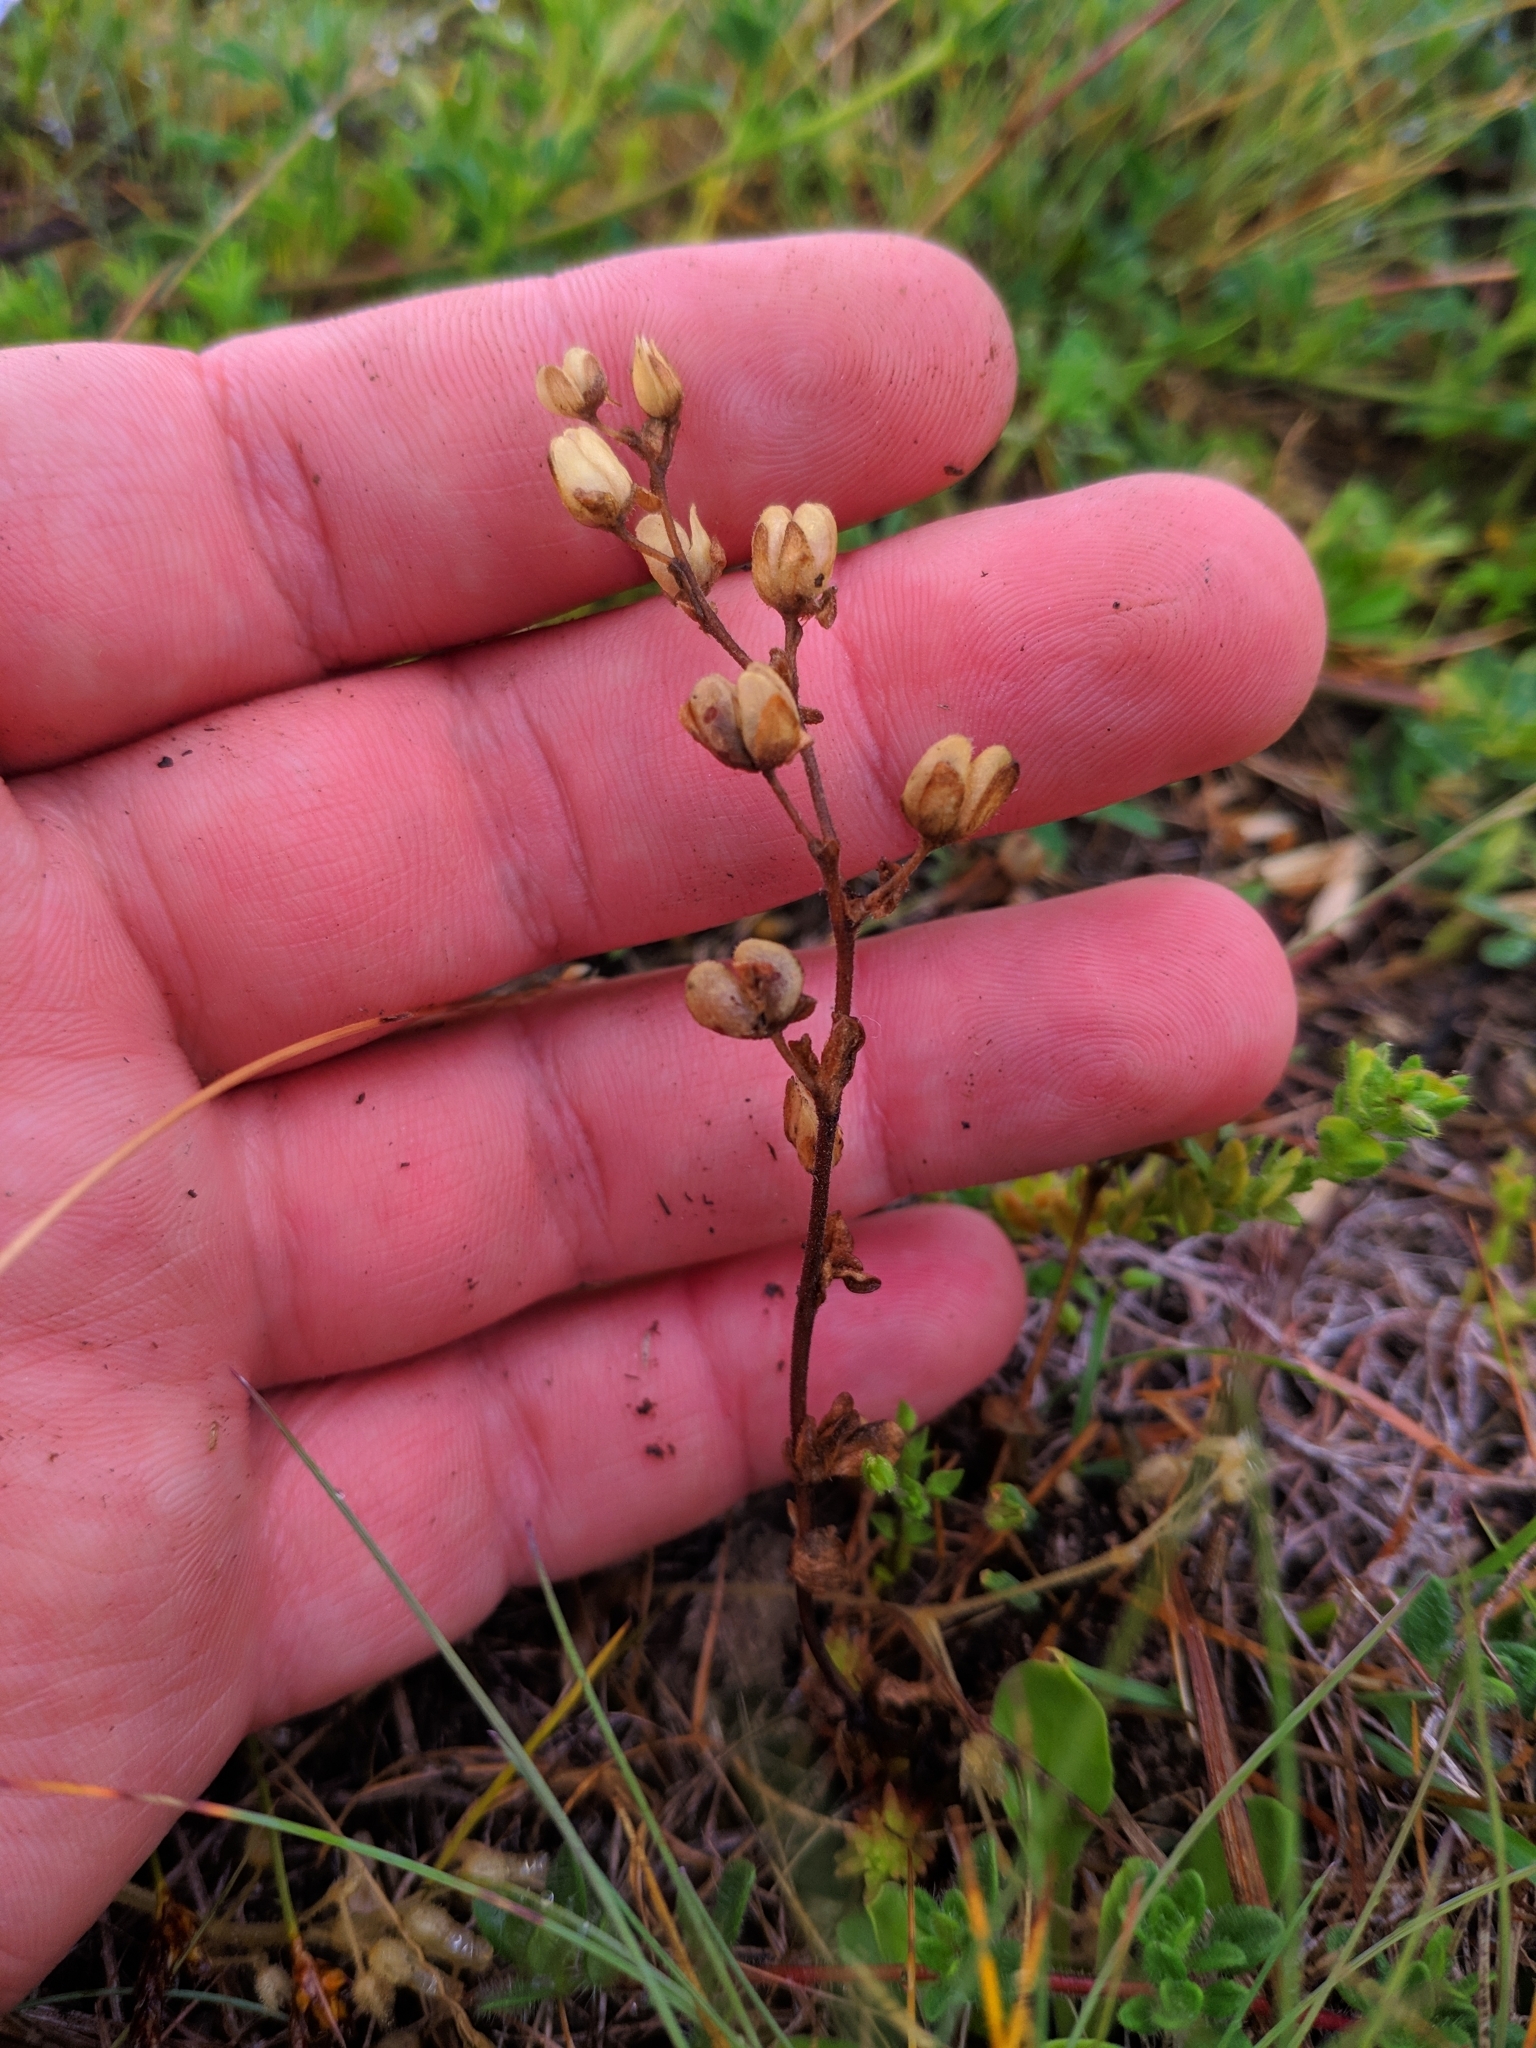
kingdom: Plantae
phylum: Tracheophyta
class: Magnoliopsida
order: Lamiales
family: Plantaginaceae
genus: Veronica
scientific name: Veronica triphyllos
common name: Fingered speedwell
